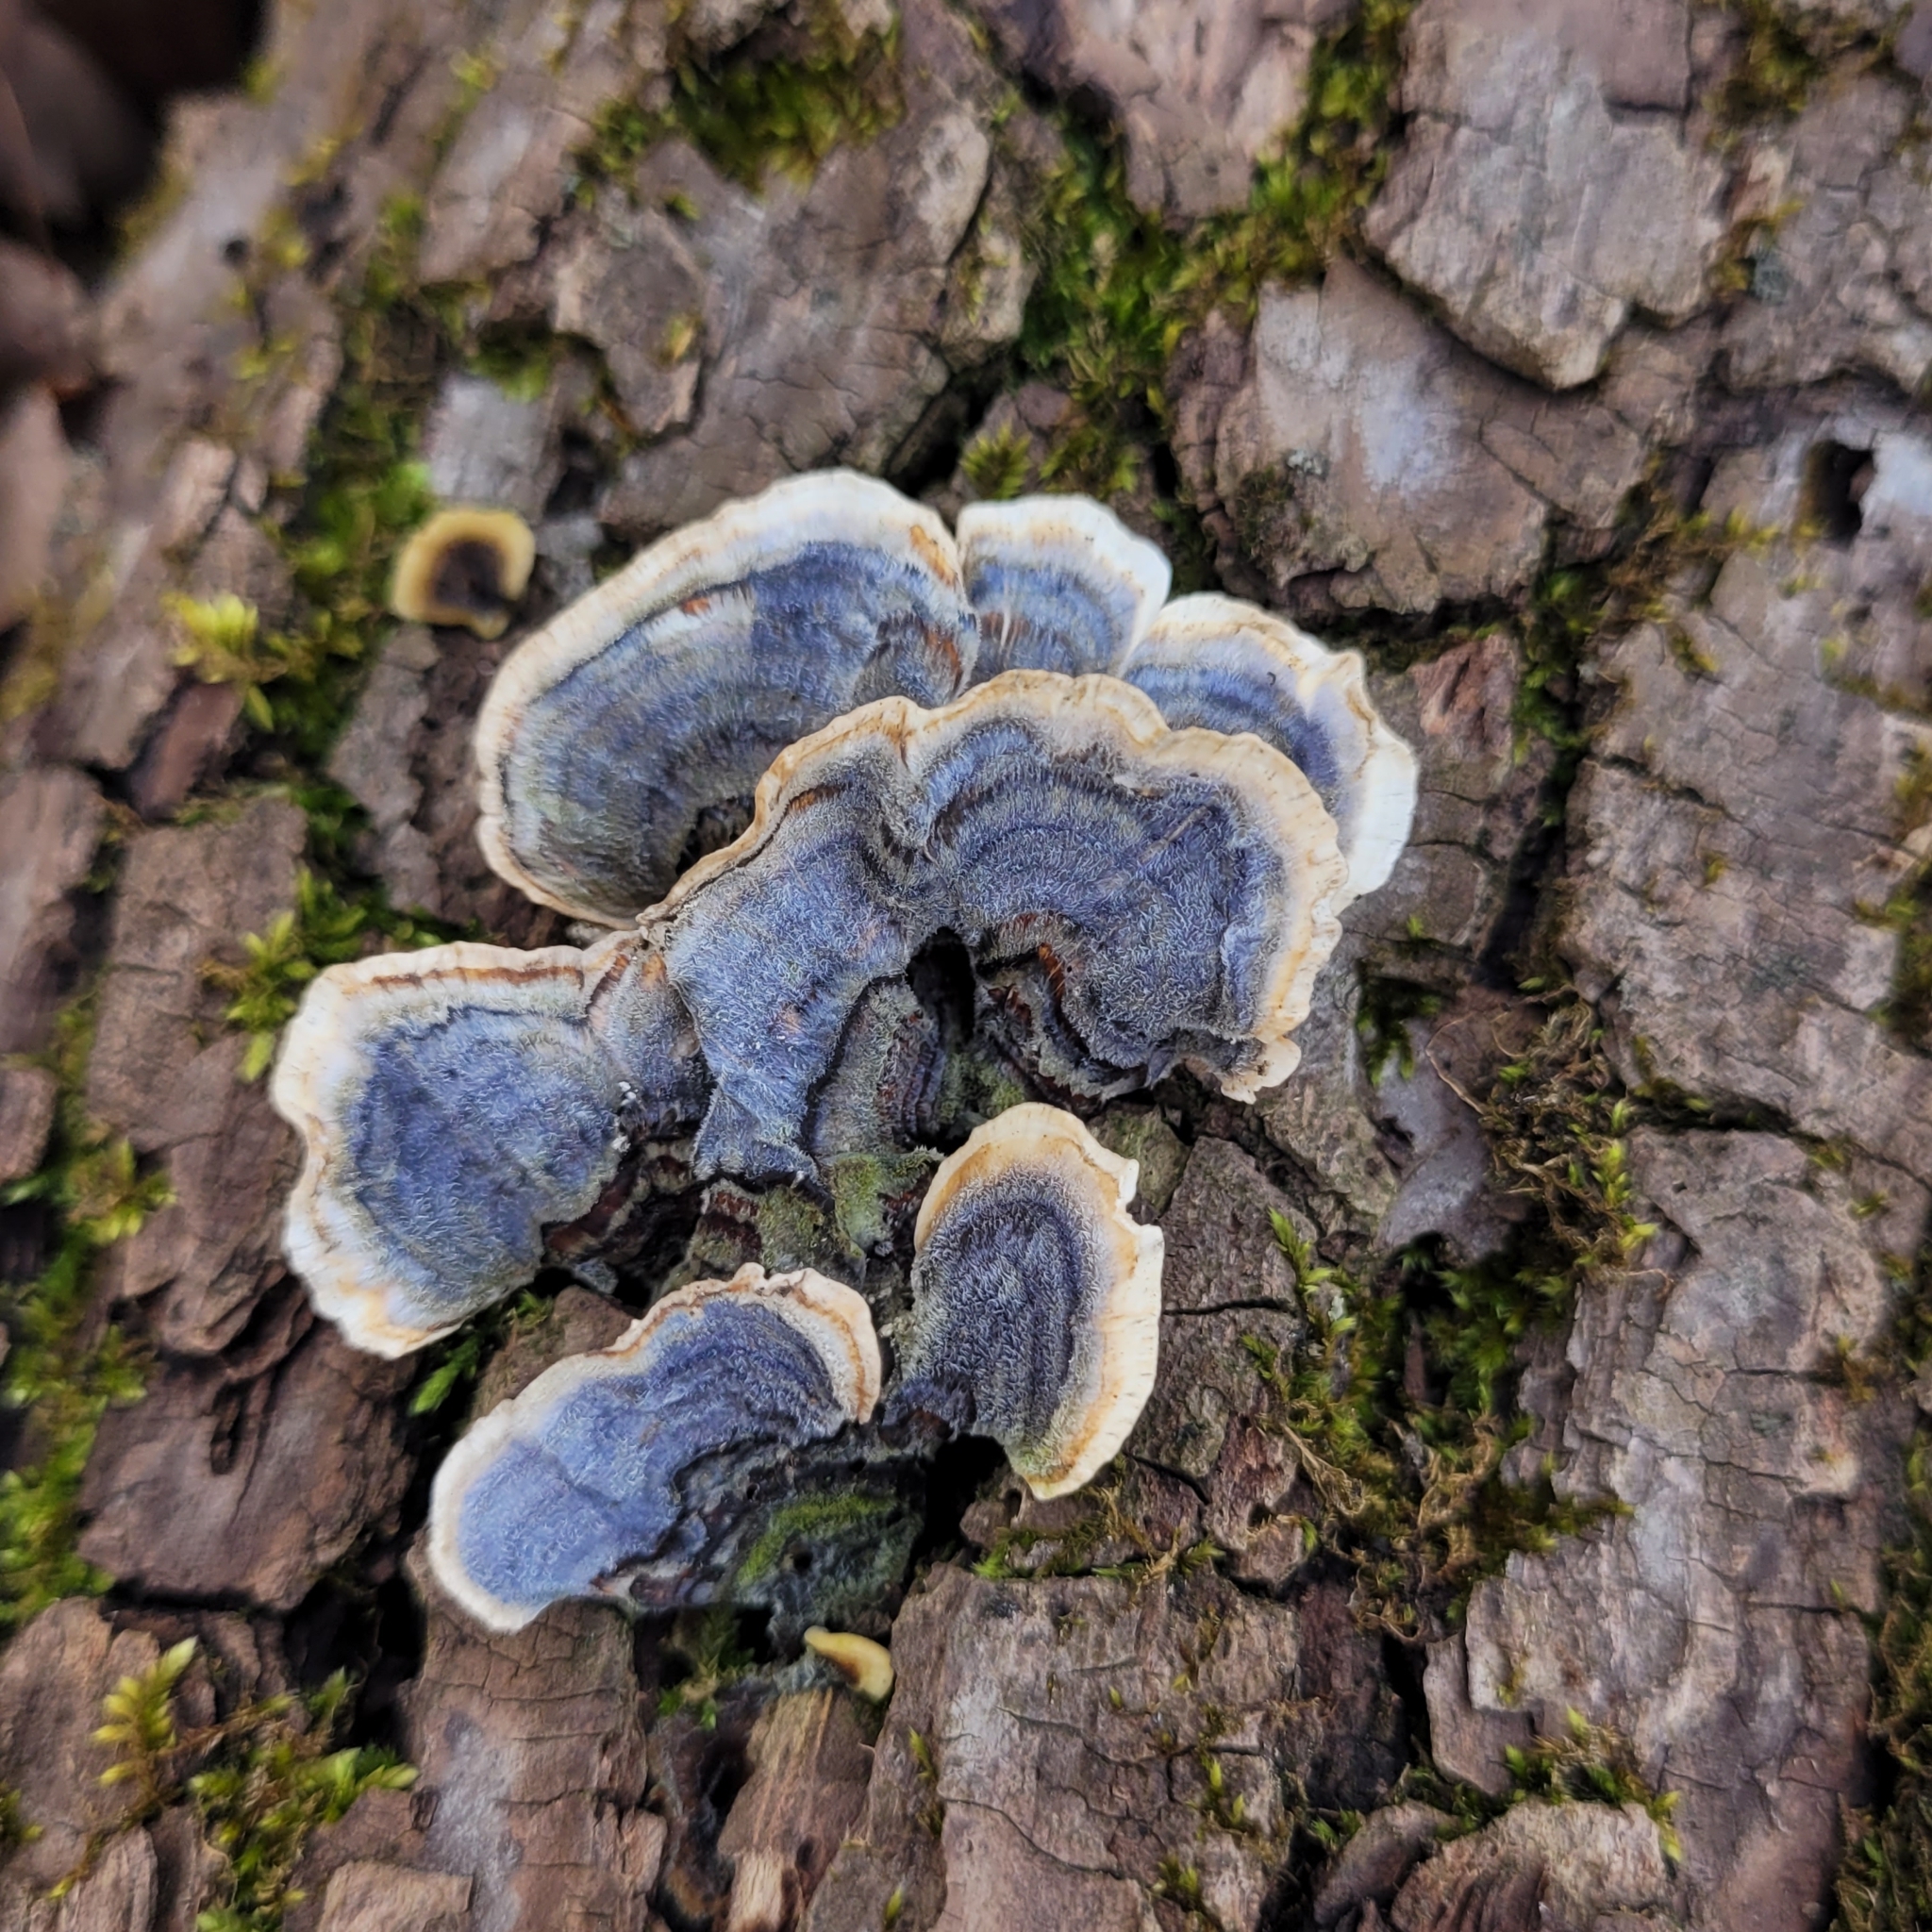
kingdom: Fungi
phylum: Basidiomycota
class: Agaricomycetes
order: Polyporales
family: Polyporaceae
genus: Trametes
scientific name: Trametes versicolor
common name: Turkeytail
